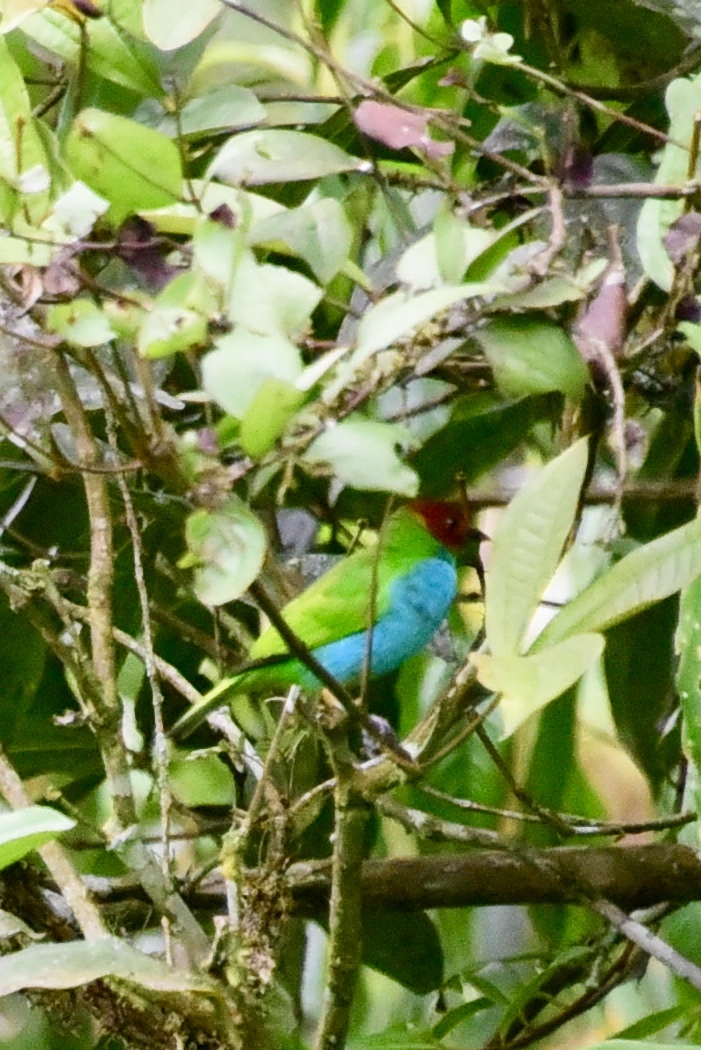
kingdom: Animalia
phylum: Chordata
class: Aves
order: Passeriformes
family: Thraupidae
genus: Tangara
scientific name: Tangara gyrola
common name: Bay-headed tanager
